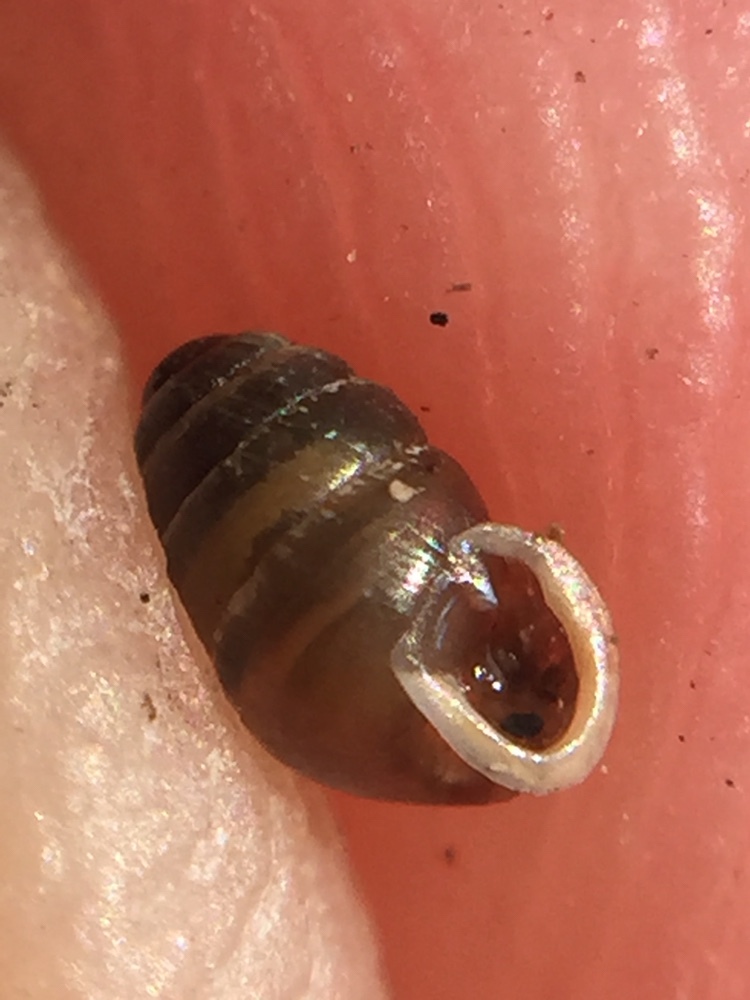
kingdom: Animalia
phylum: Mollusca
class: Gastropoda
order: Stylommatophora
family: Lauriidae
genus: Lauria
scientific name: Lauria cylindracea
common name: Common chrysalis snail
